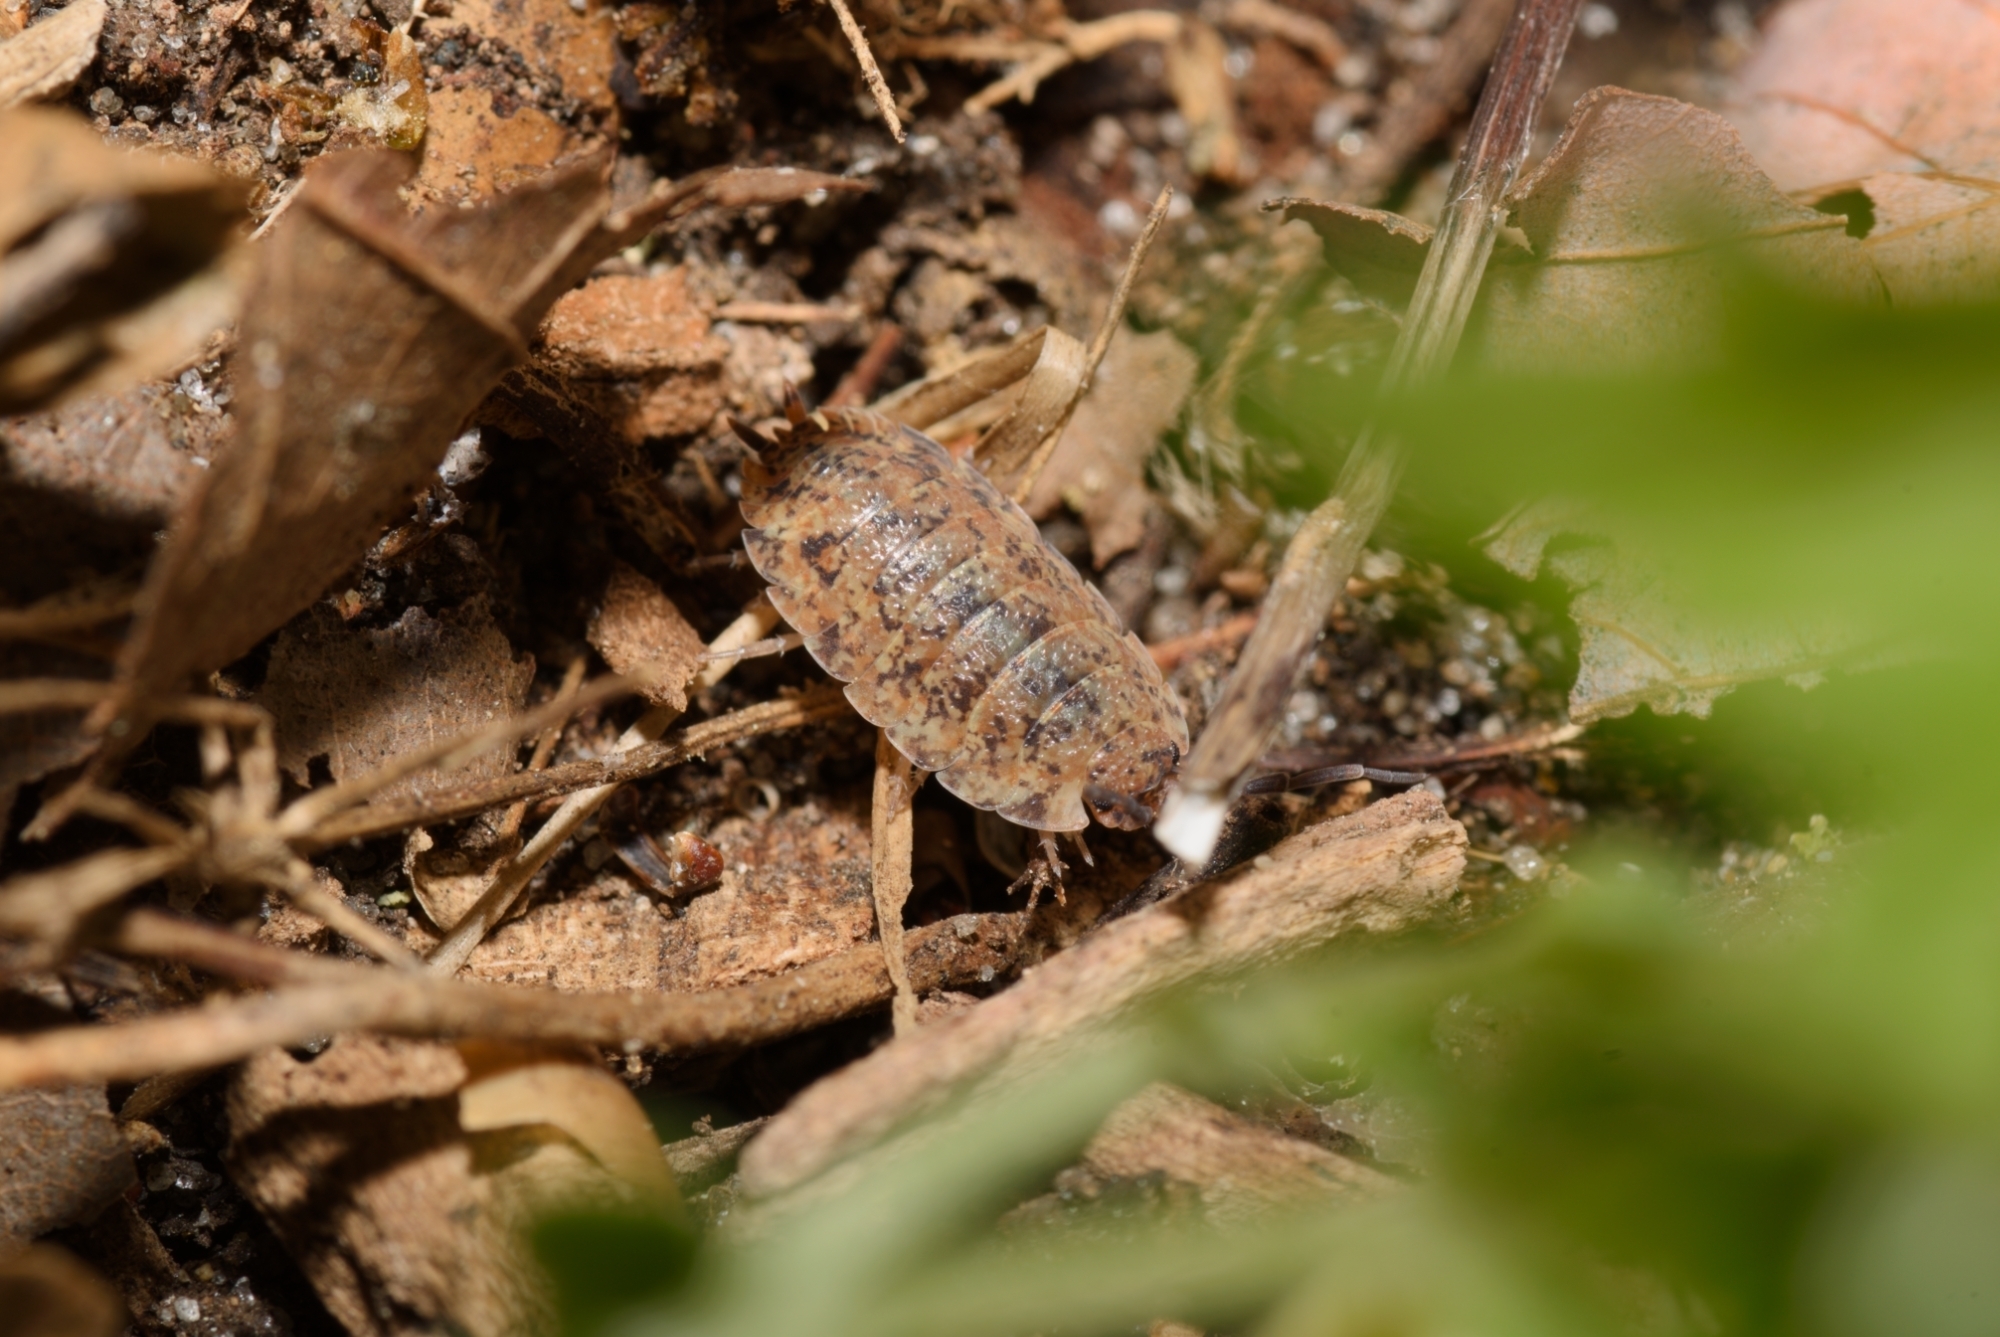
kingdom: Animalia
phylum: Arthropoda
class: Malacostraca
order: Isopoda
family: Porcellionidae
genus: Porcellio
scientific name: Porcellio scaber
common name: Common rough woodlouse
